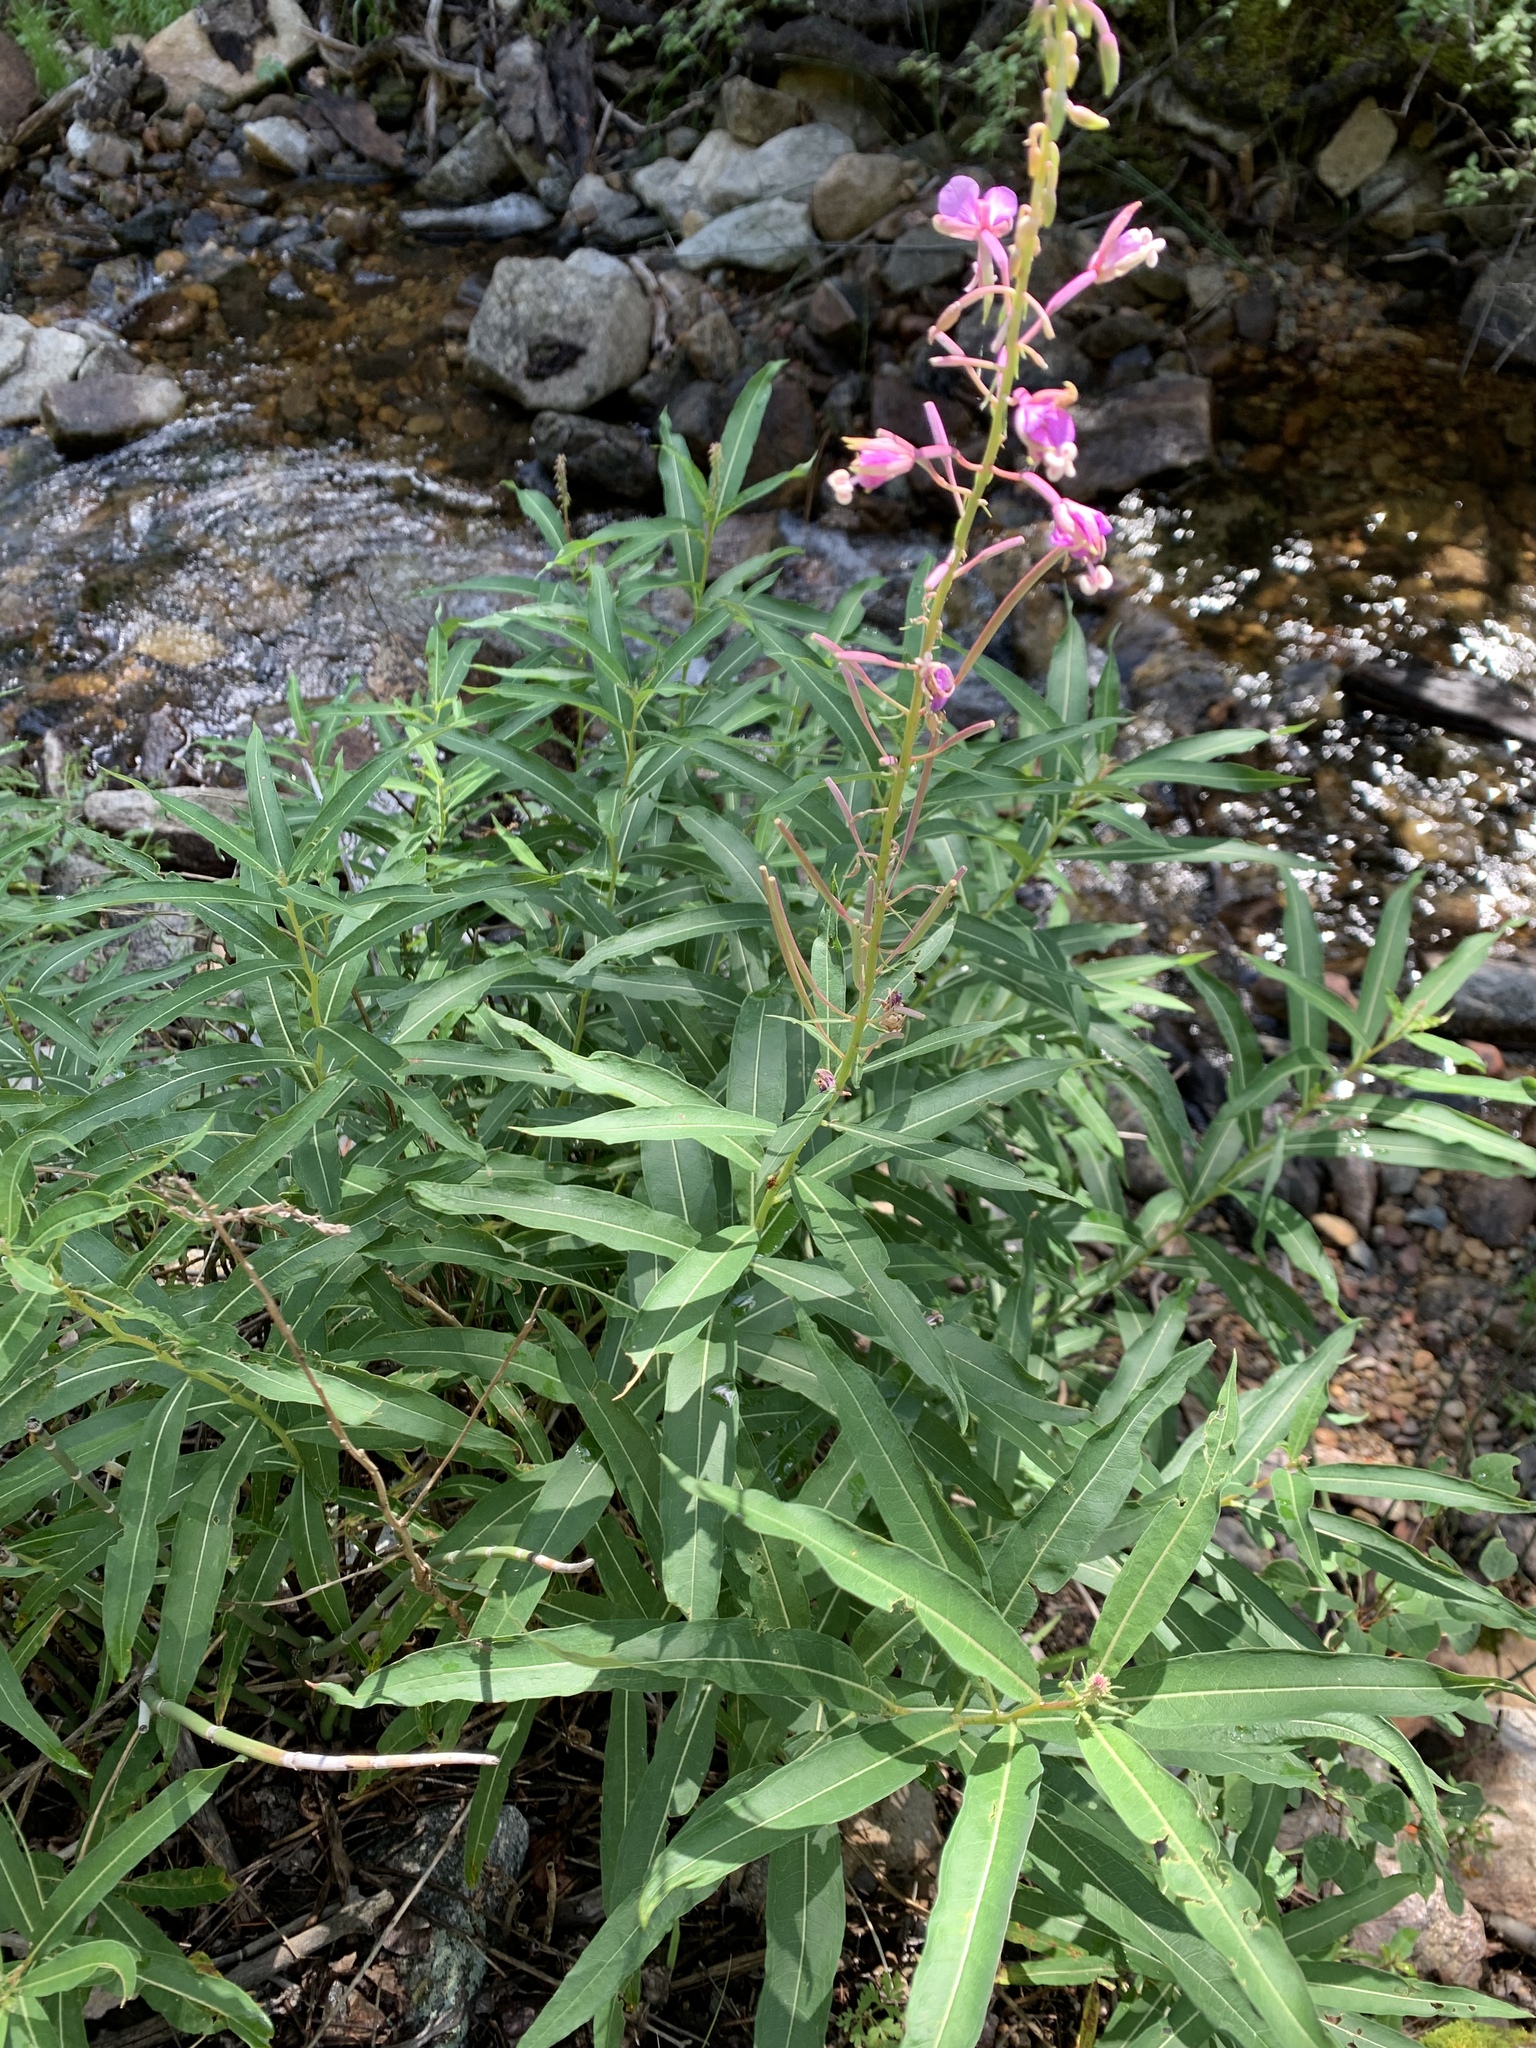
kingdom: Plantae
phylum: Tracheophyta
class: Magnoliopsida
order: Myrtales
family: Onagraceae
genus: Chamaenerion
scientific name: Chamaenerion angustifolium
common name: Fireweed
